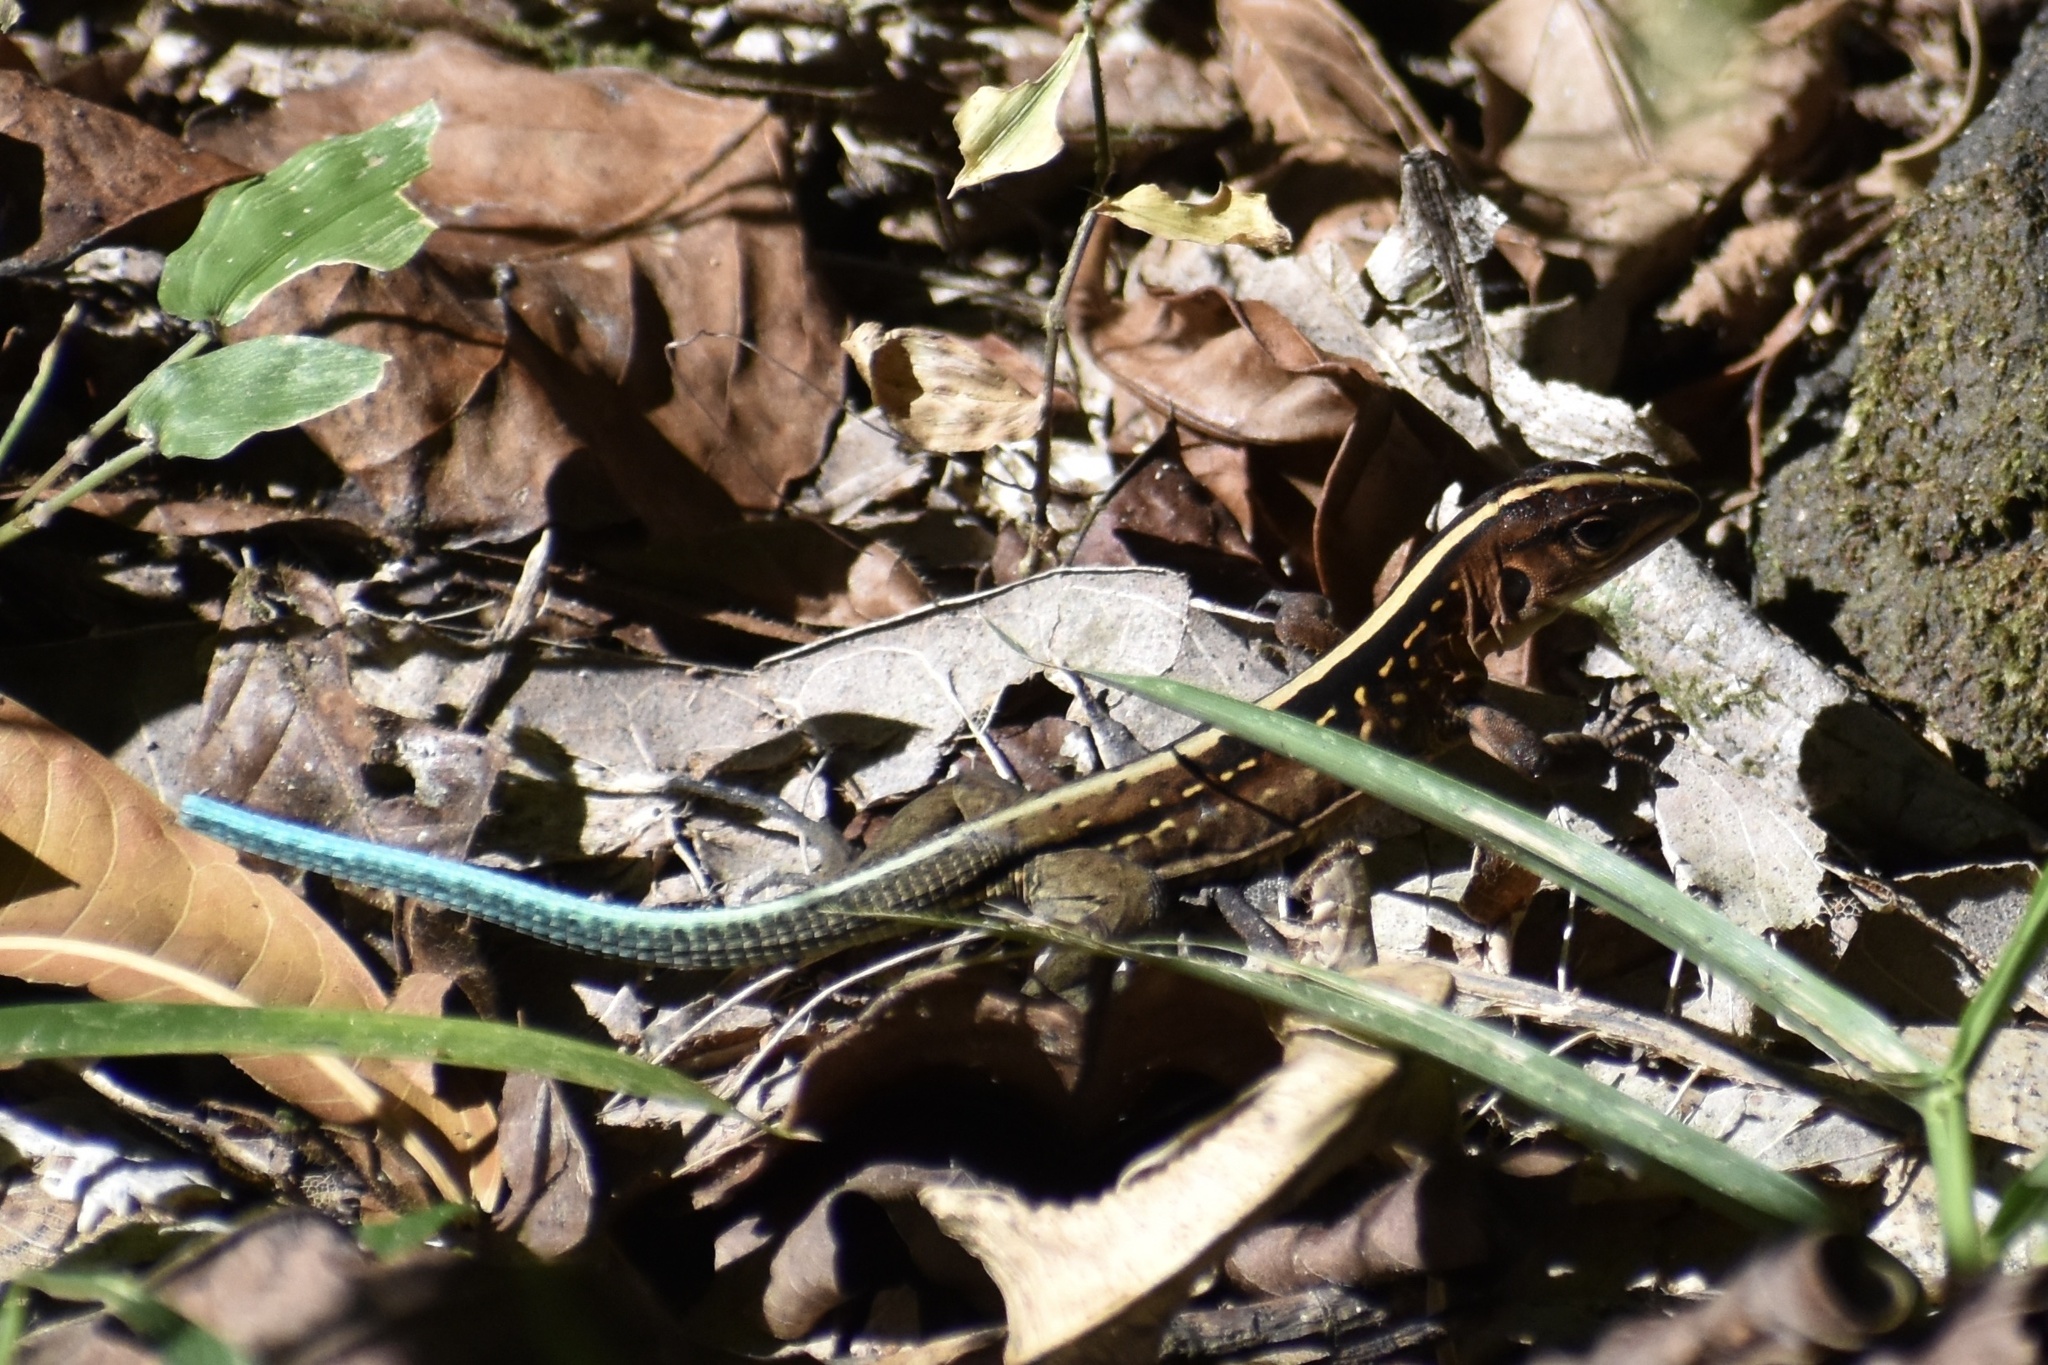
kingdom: Animalia
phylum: Chordata
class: Squamata
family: Teiidae
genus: Holcosus
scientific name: Holcosus festivus
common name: Middle american ameiva
